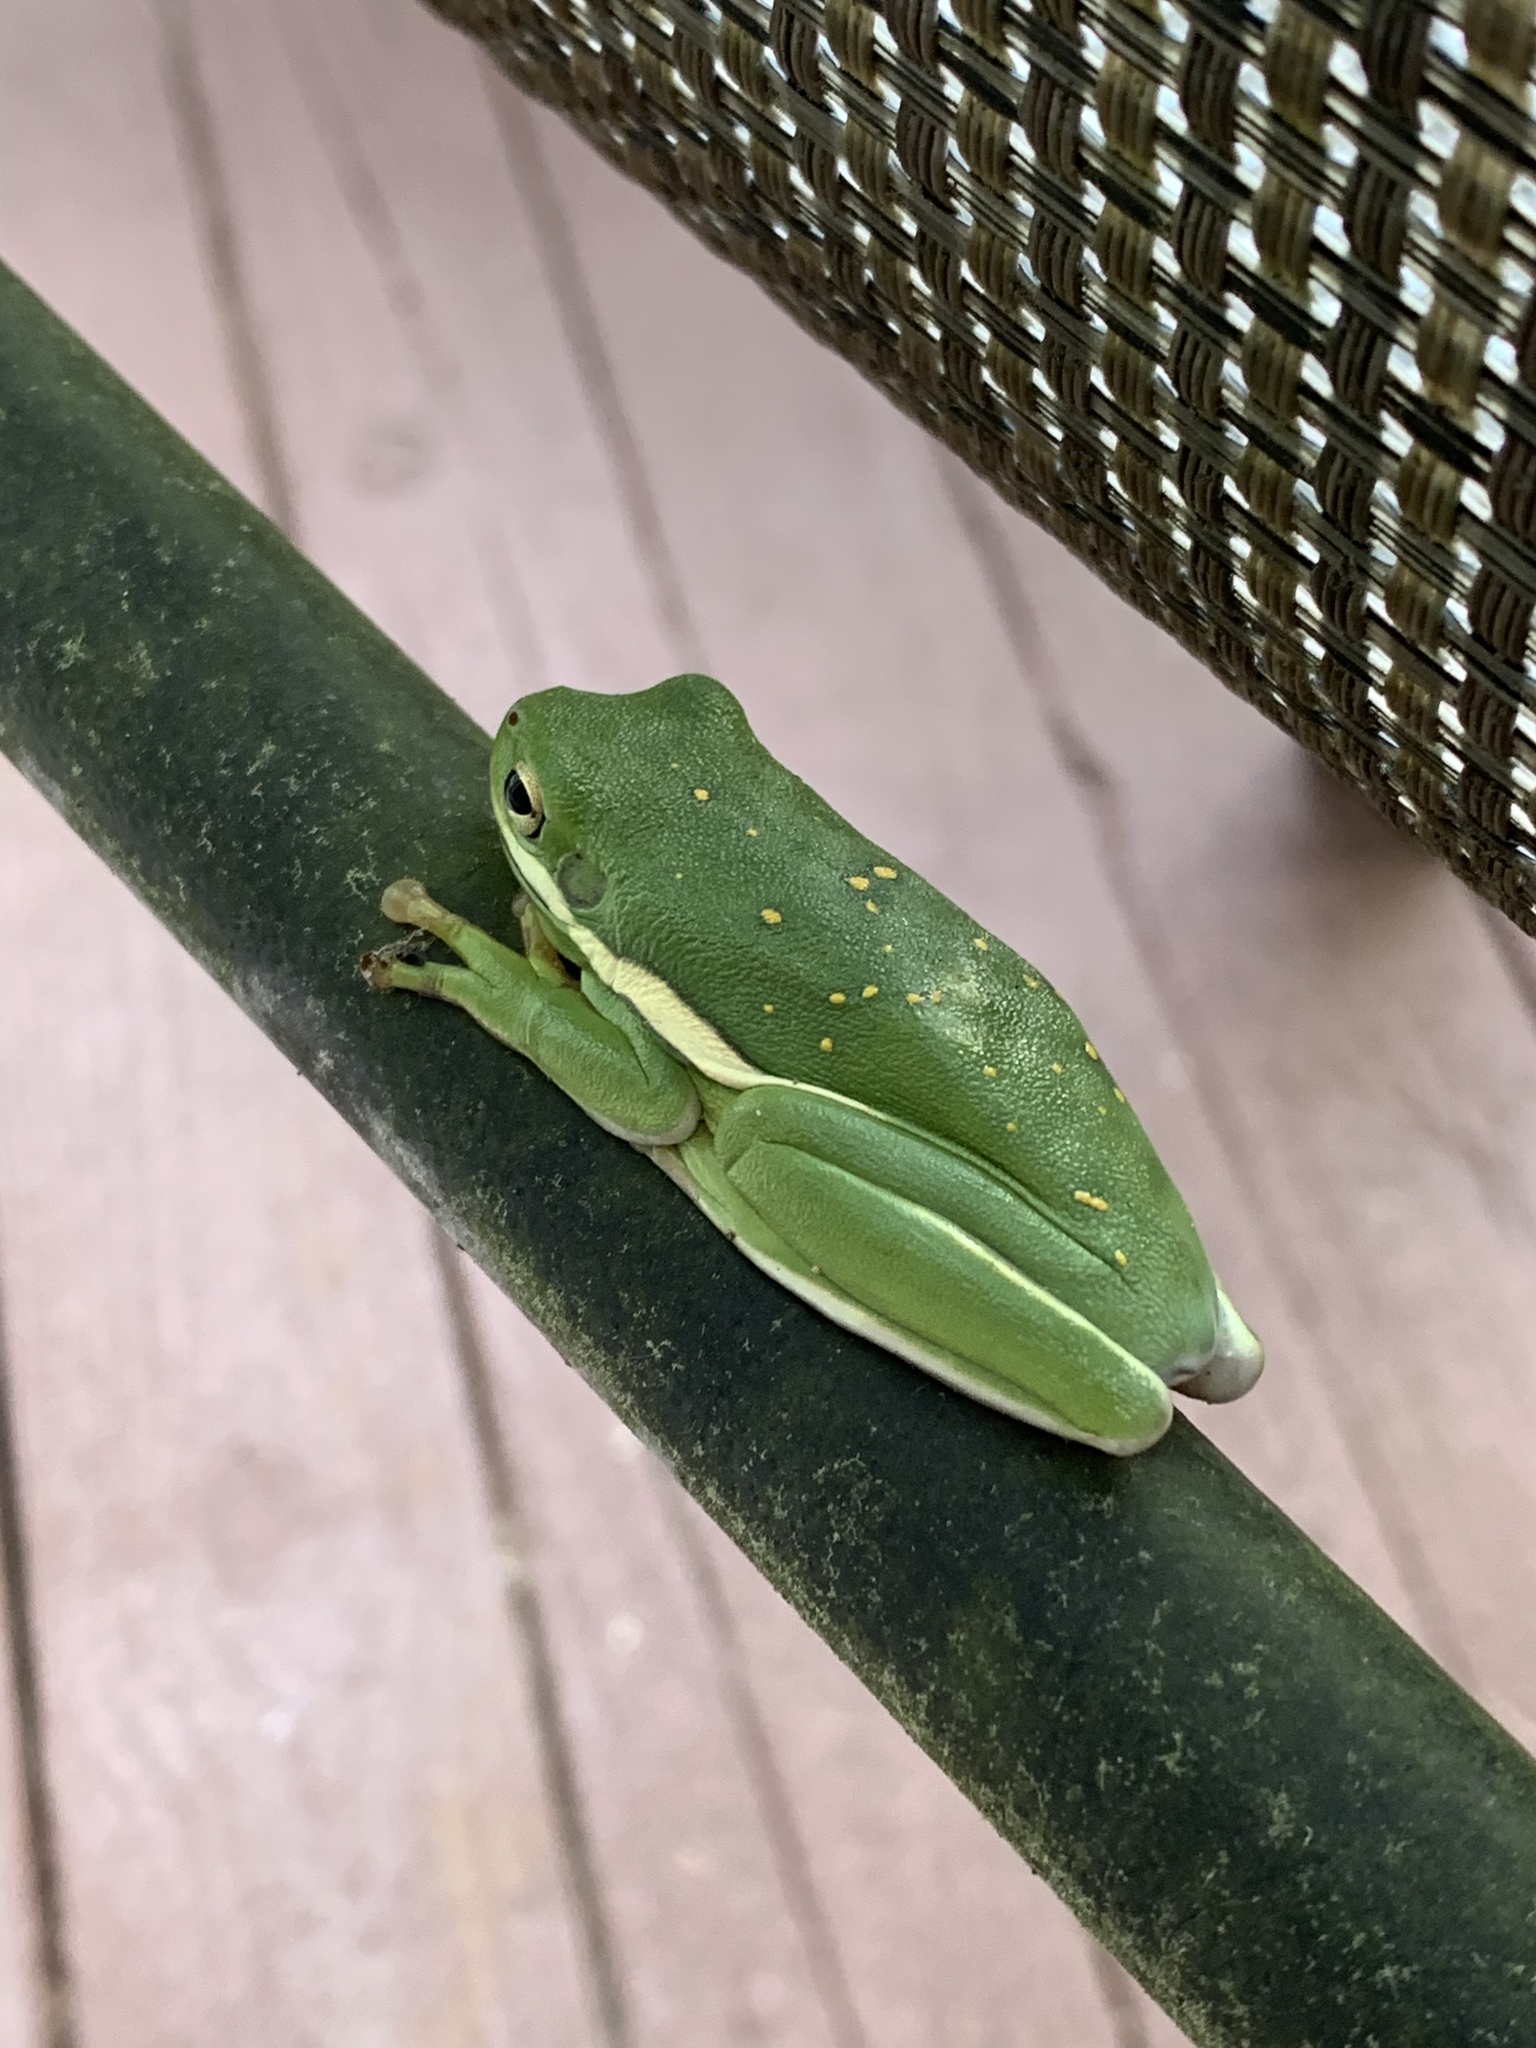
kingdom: Animalia
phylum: Chordata
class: Amphibia
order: Anura
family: Hylidae
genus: Dryophytes
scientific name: Dryophytes cinereus
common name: Green treefrog
